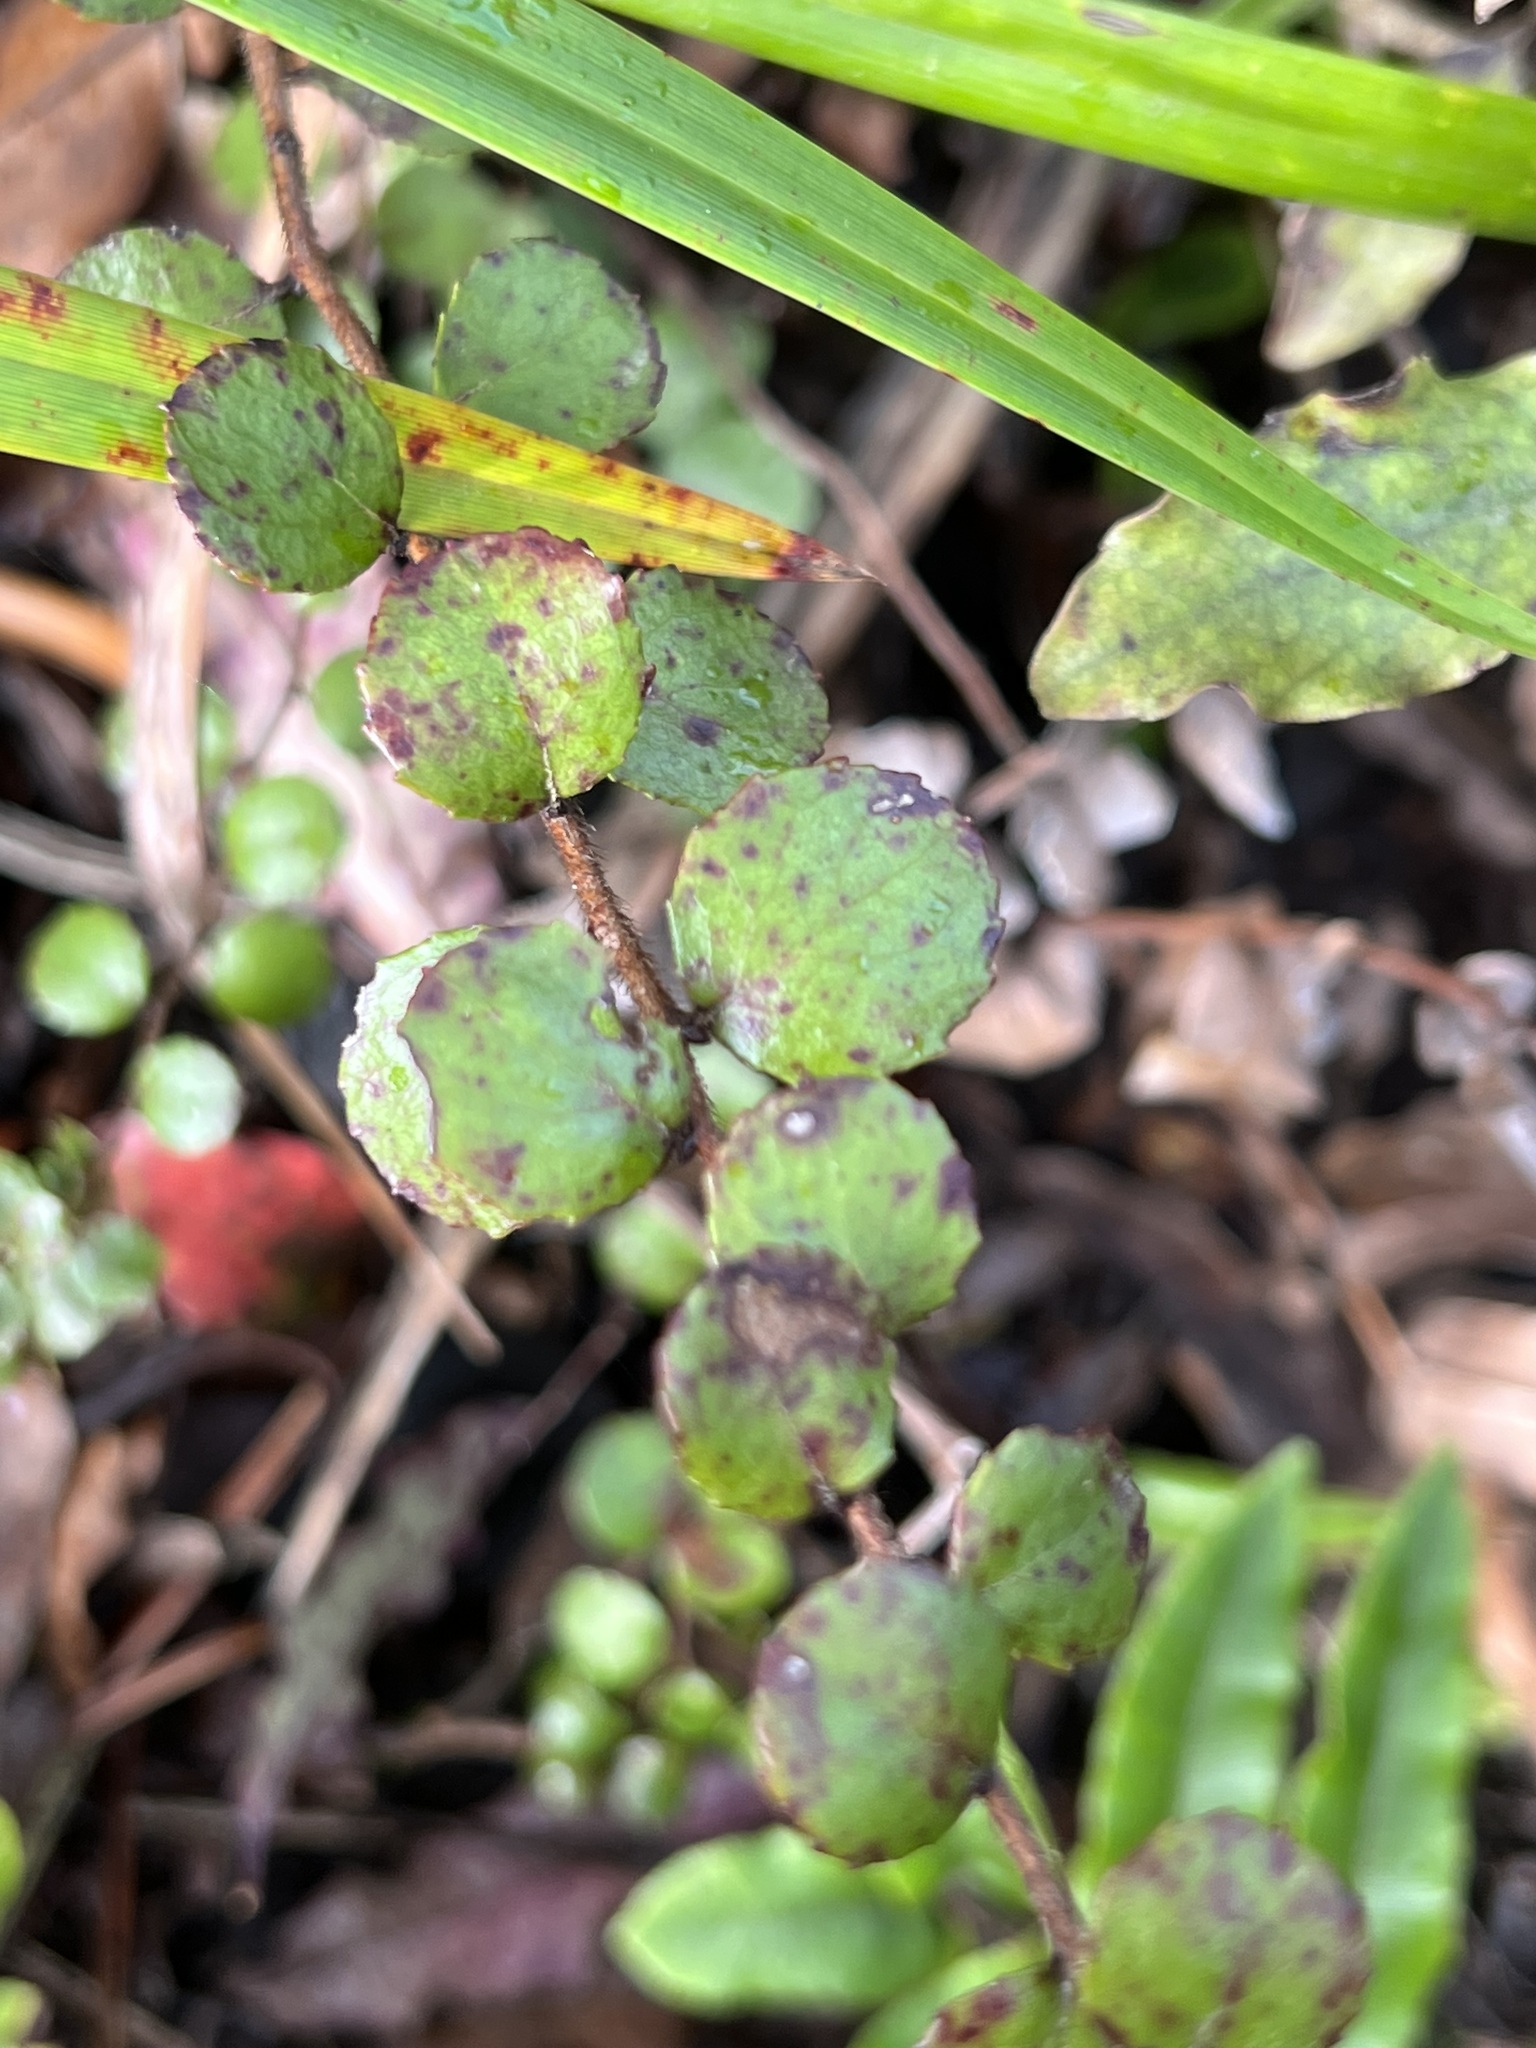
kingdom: Plantae
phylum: Tracheophyta
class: Magnoliopsida
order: Ericales
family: Ericaceae
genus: Gaultheria
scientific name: Gaultheria antipoda
